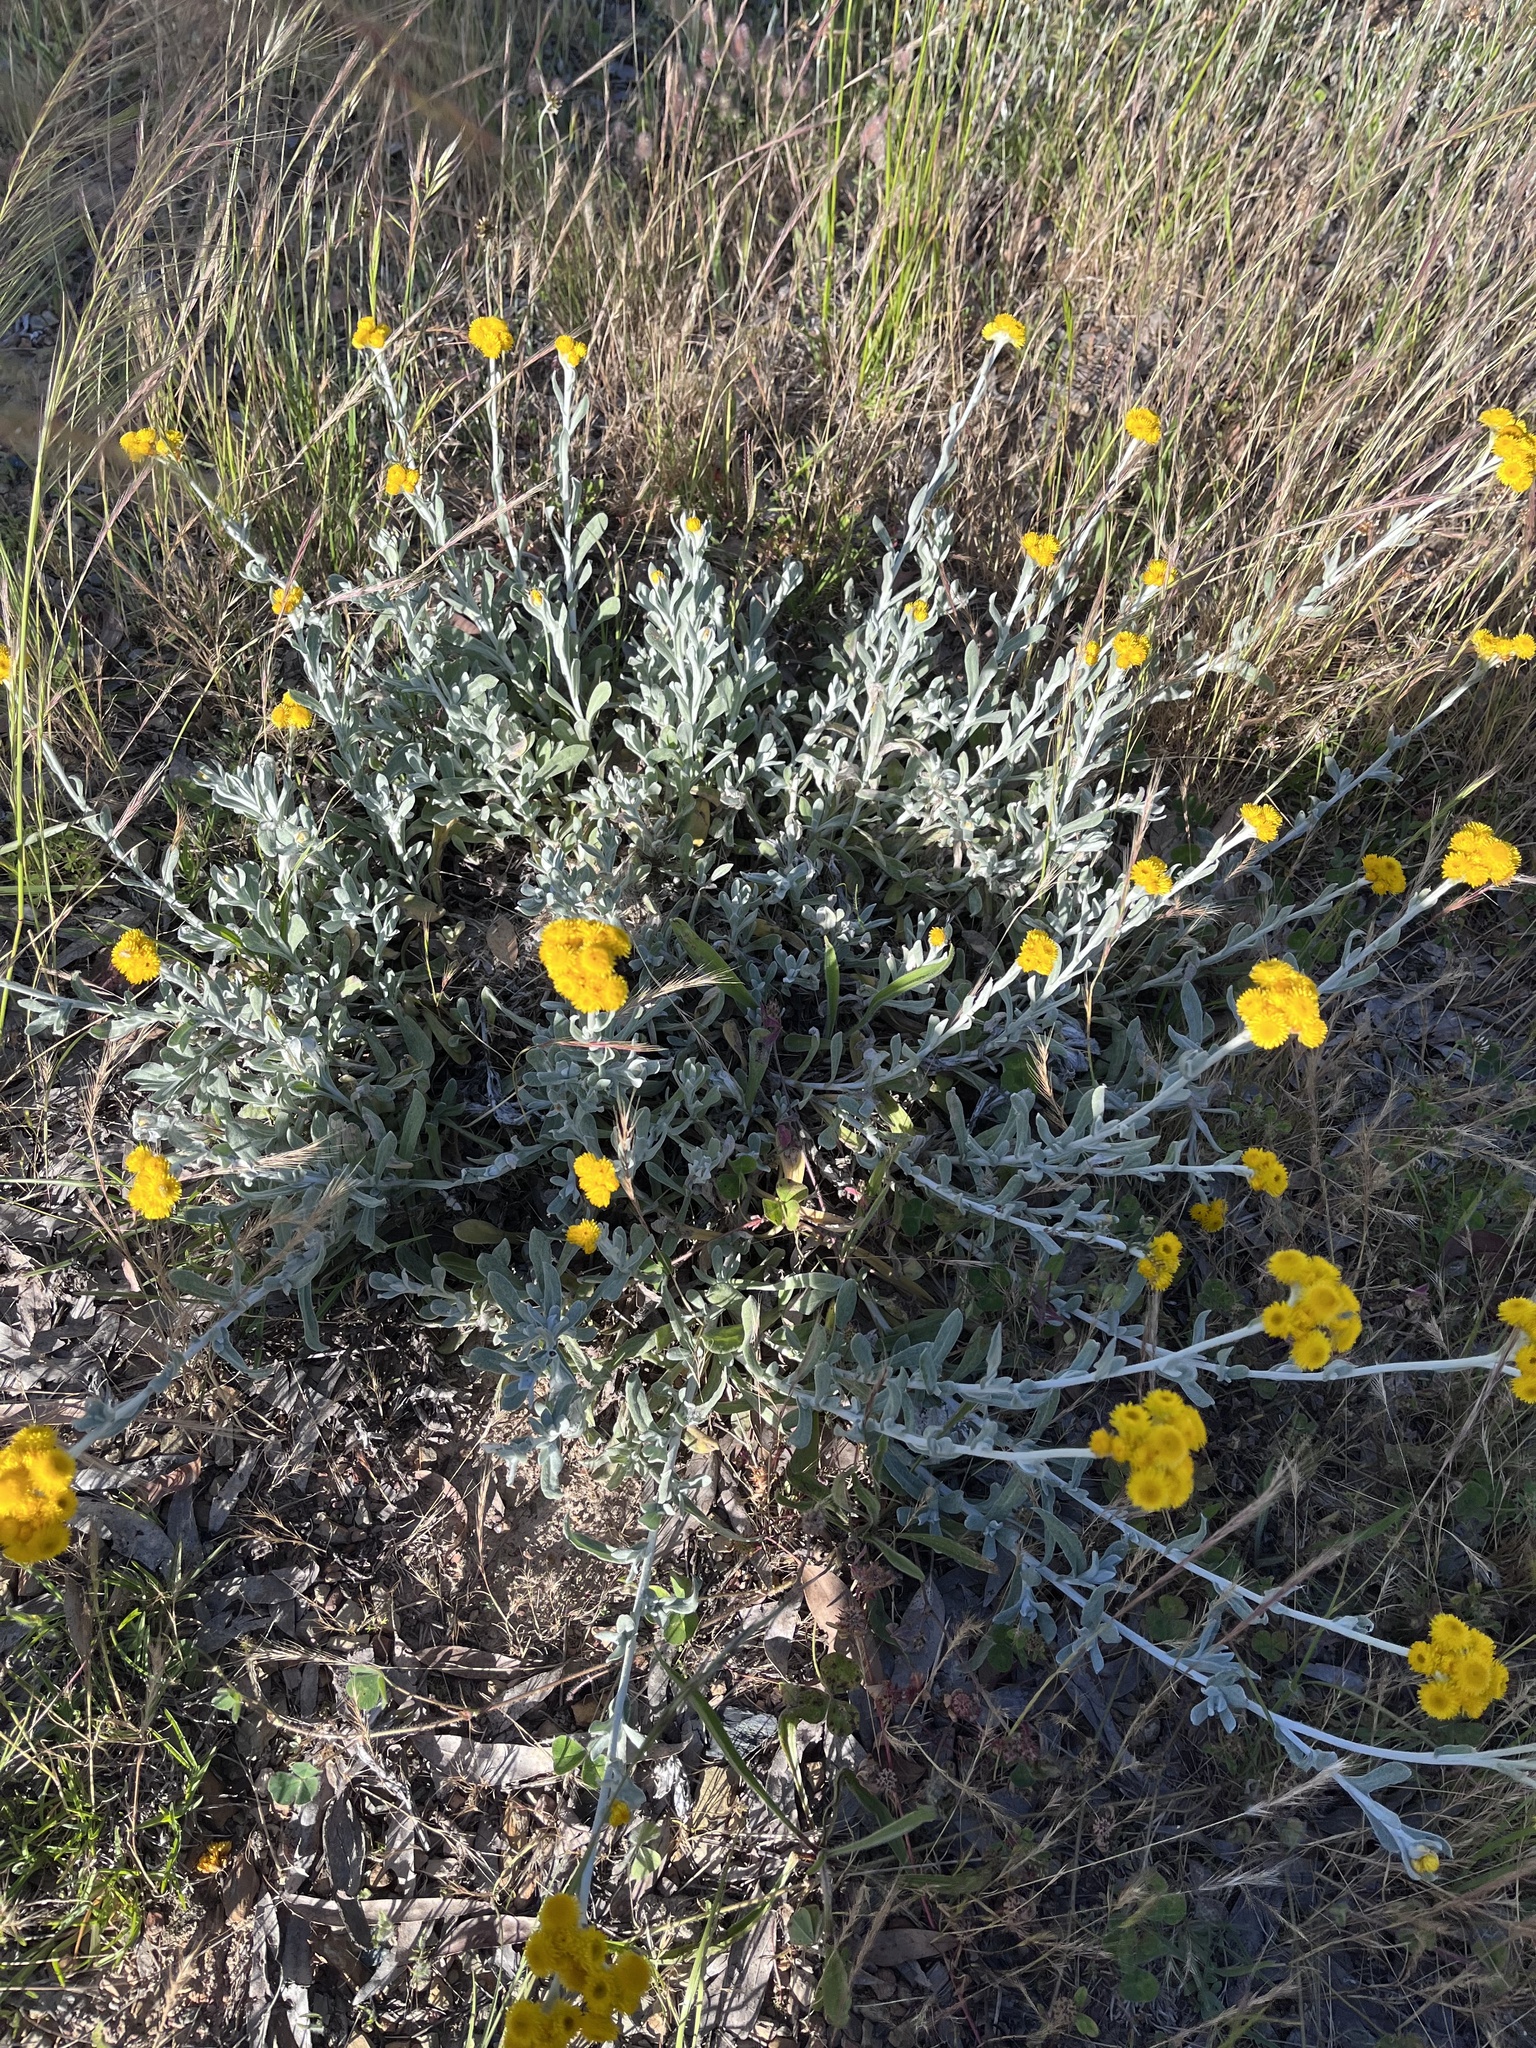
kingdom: Plantae
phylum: Tracheophyta
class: Magnoliopsida
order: Asterales
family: Asteraceae
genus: Chrysocephalum
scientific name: Chrysocephalum apiculatum
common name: Common everlasting
